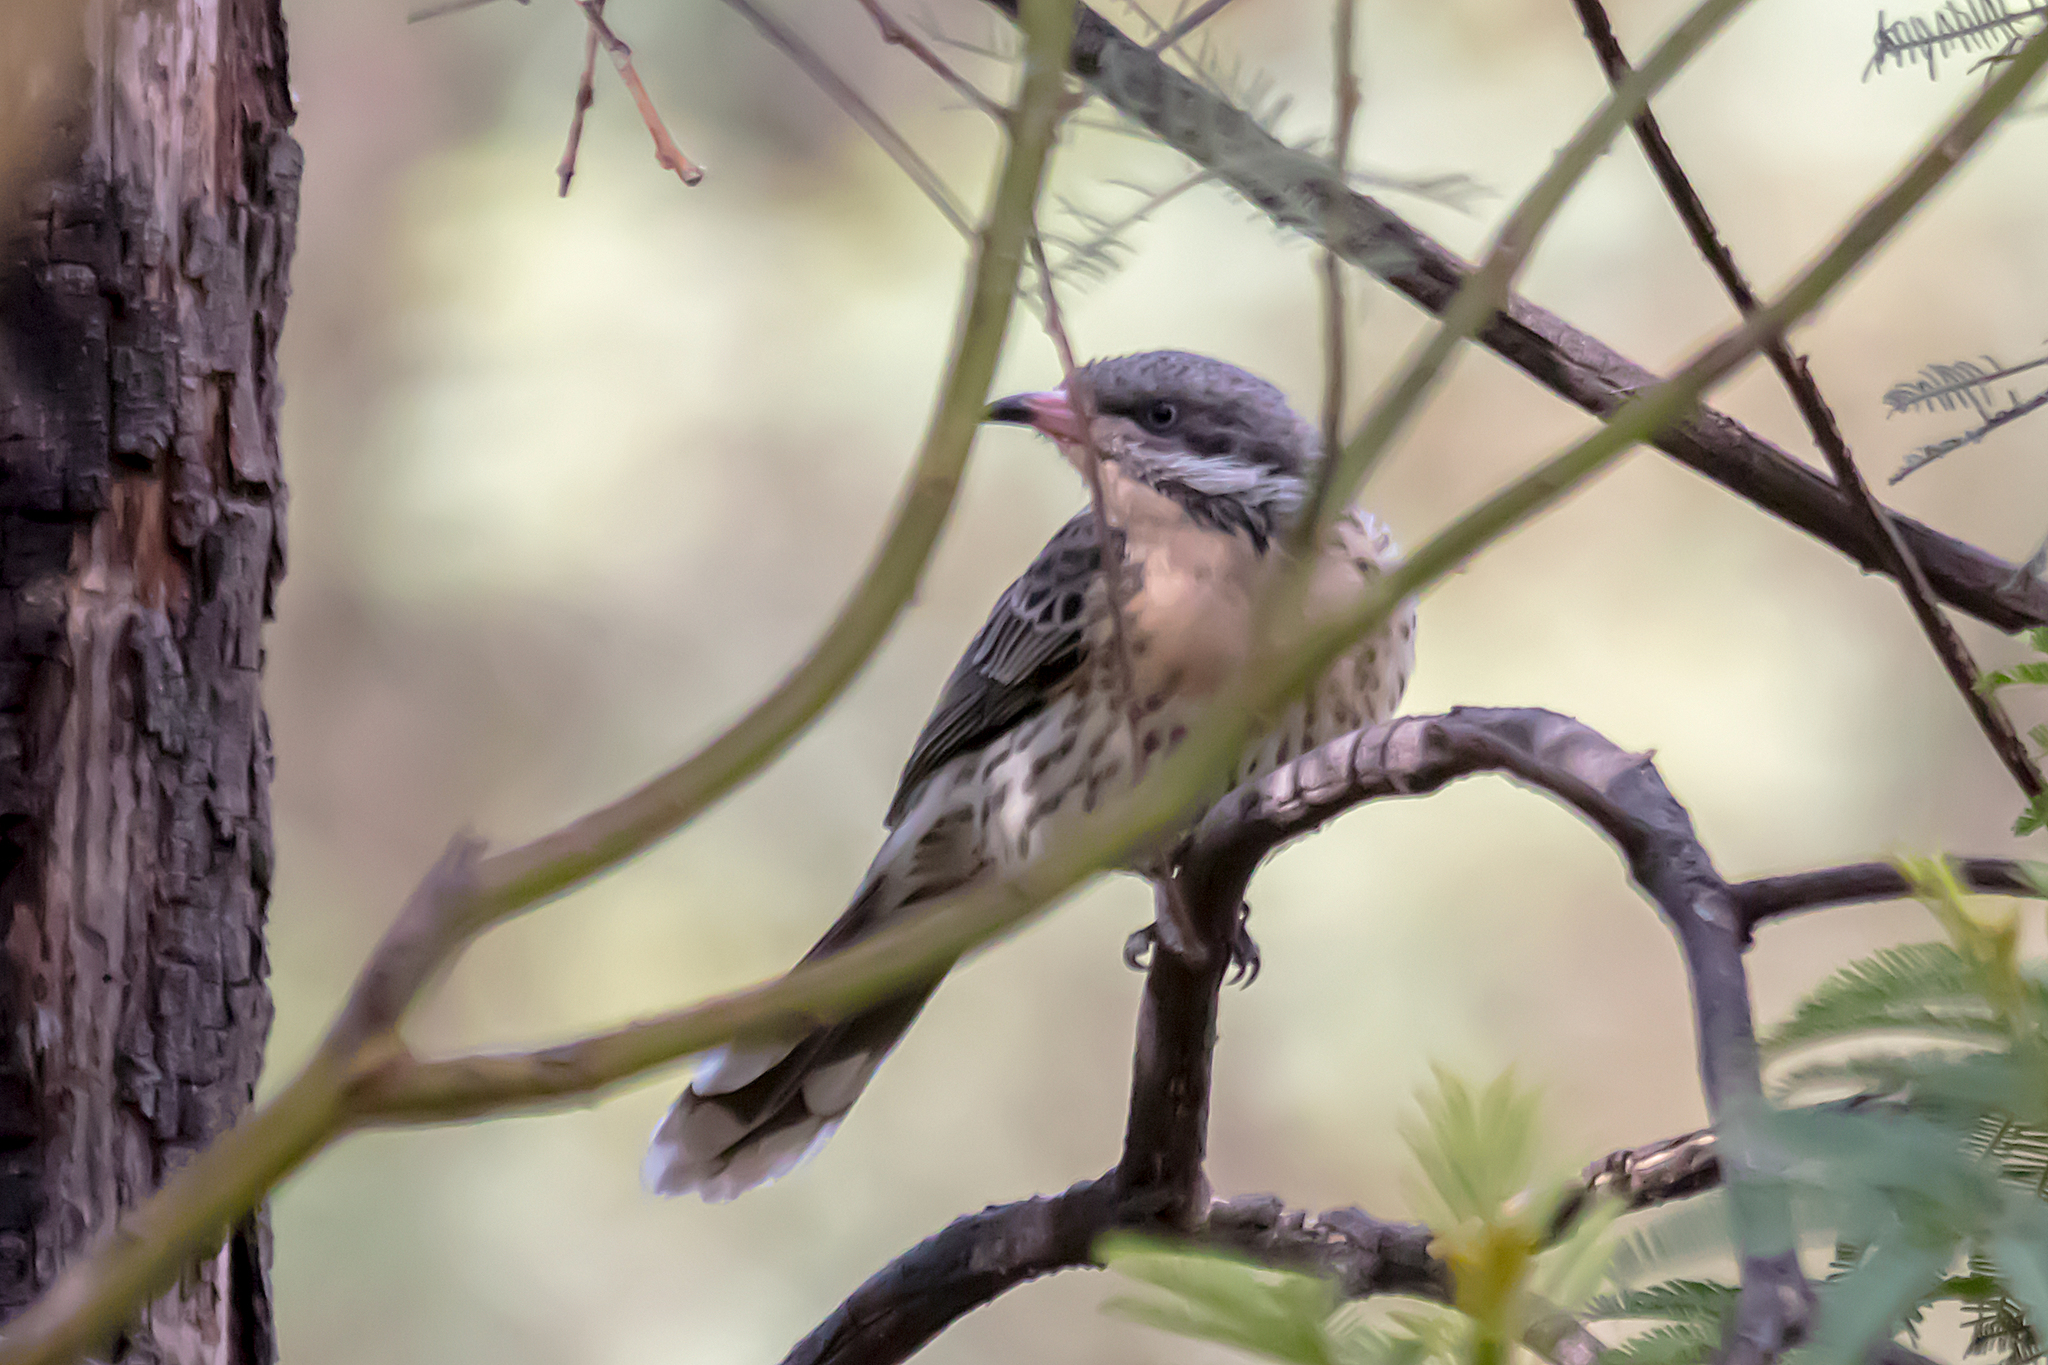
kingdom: Animalia
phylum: Chordata
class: Aves
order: Passeriformes
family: Meliphagidae
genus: Acanthagenys
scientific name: Acanthagenys rufogularis
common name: Spiny-cheeked honeyeater
